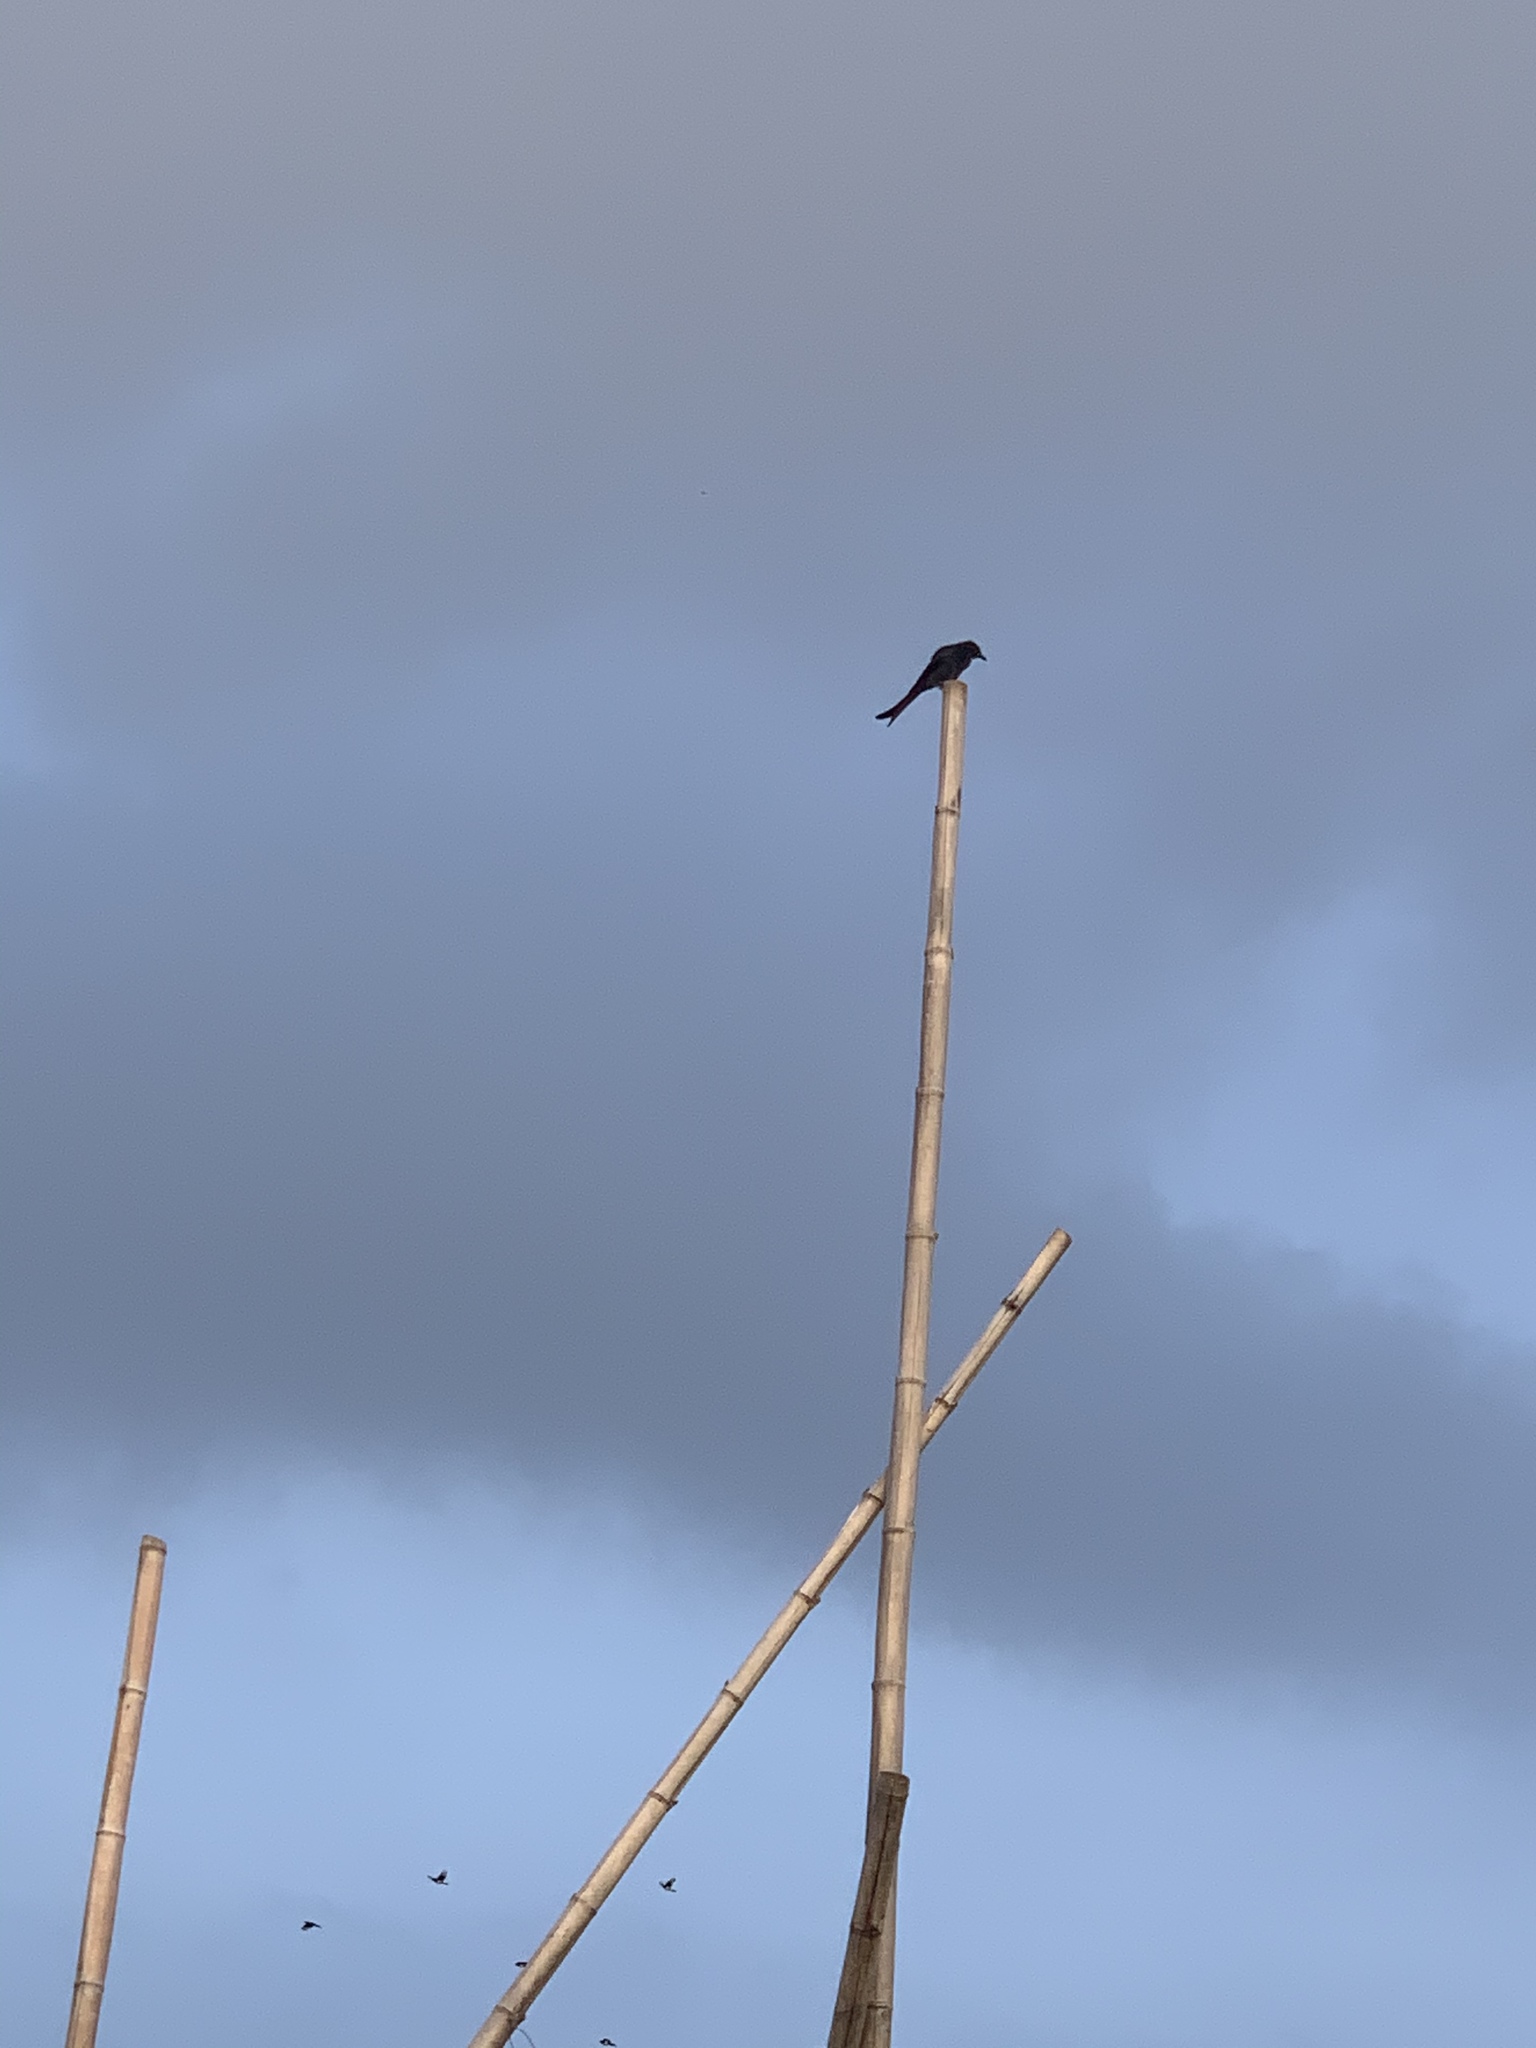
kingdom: Animalia
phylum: Chordata
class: Aves
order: Passeriformes
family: Dicruridae
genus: Dicrurus
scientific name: Dicrurus macrocercus
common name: Black drongo
